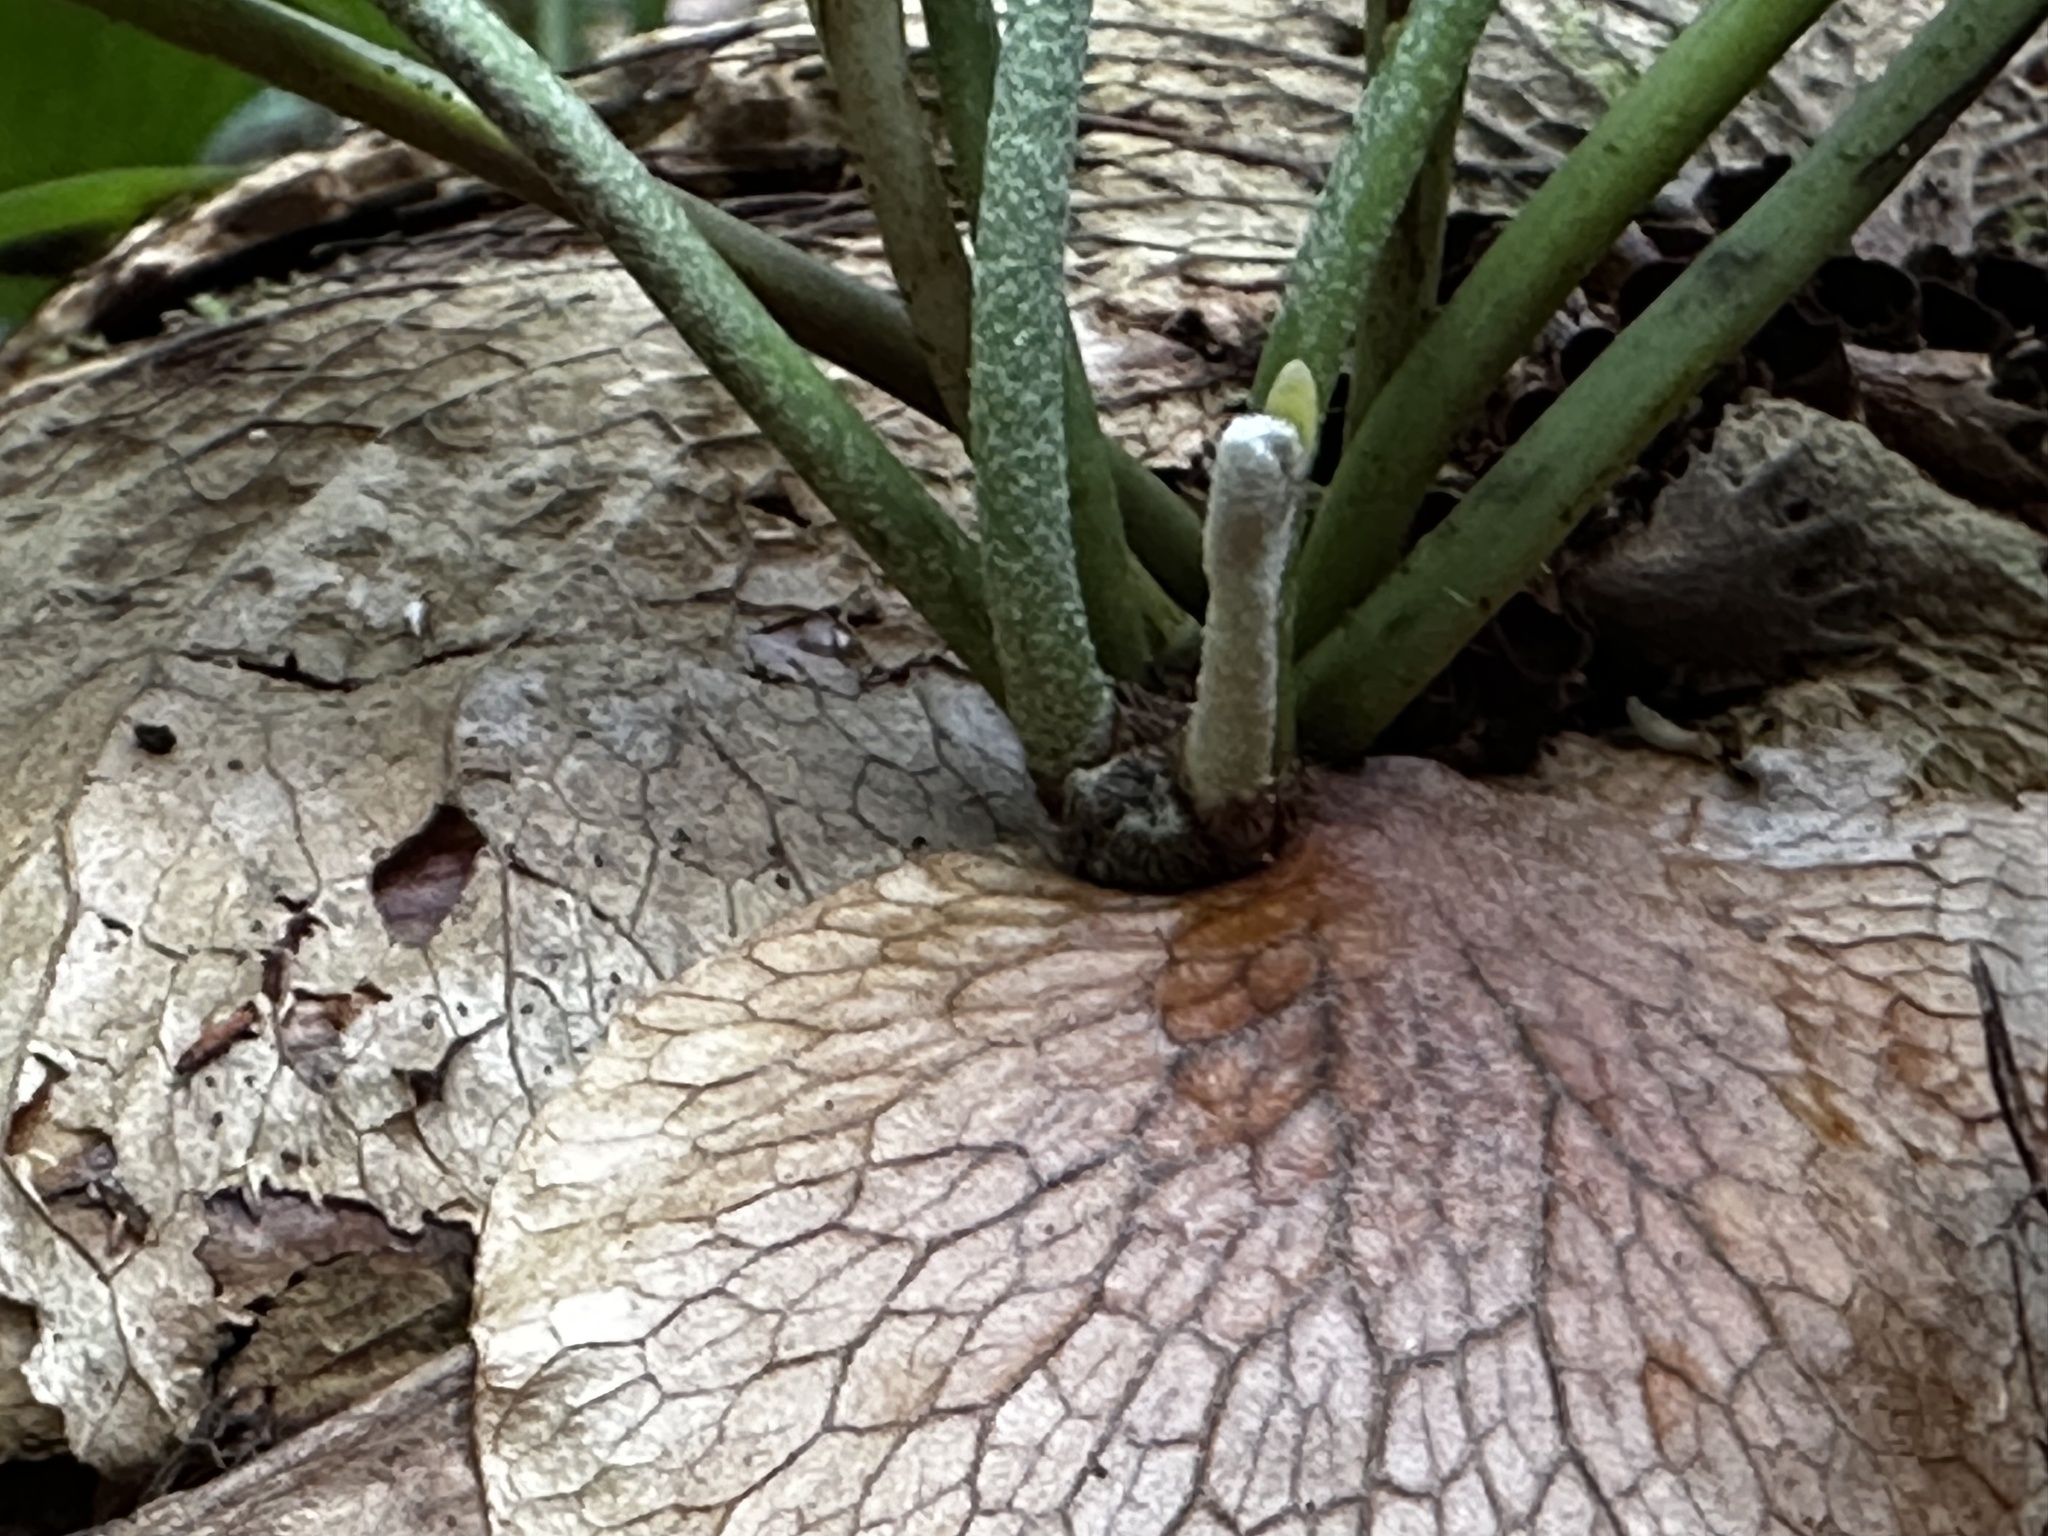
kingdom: Plantae
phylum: Tracheophyta
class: Polypodiopsida
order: Polypodiales
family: Polypodiaceae
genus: Platycerium
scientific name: Platycerium bifurcatum
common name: Elkhorn fern
